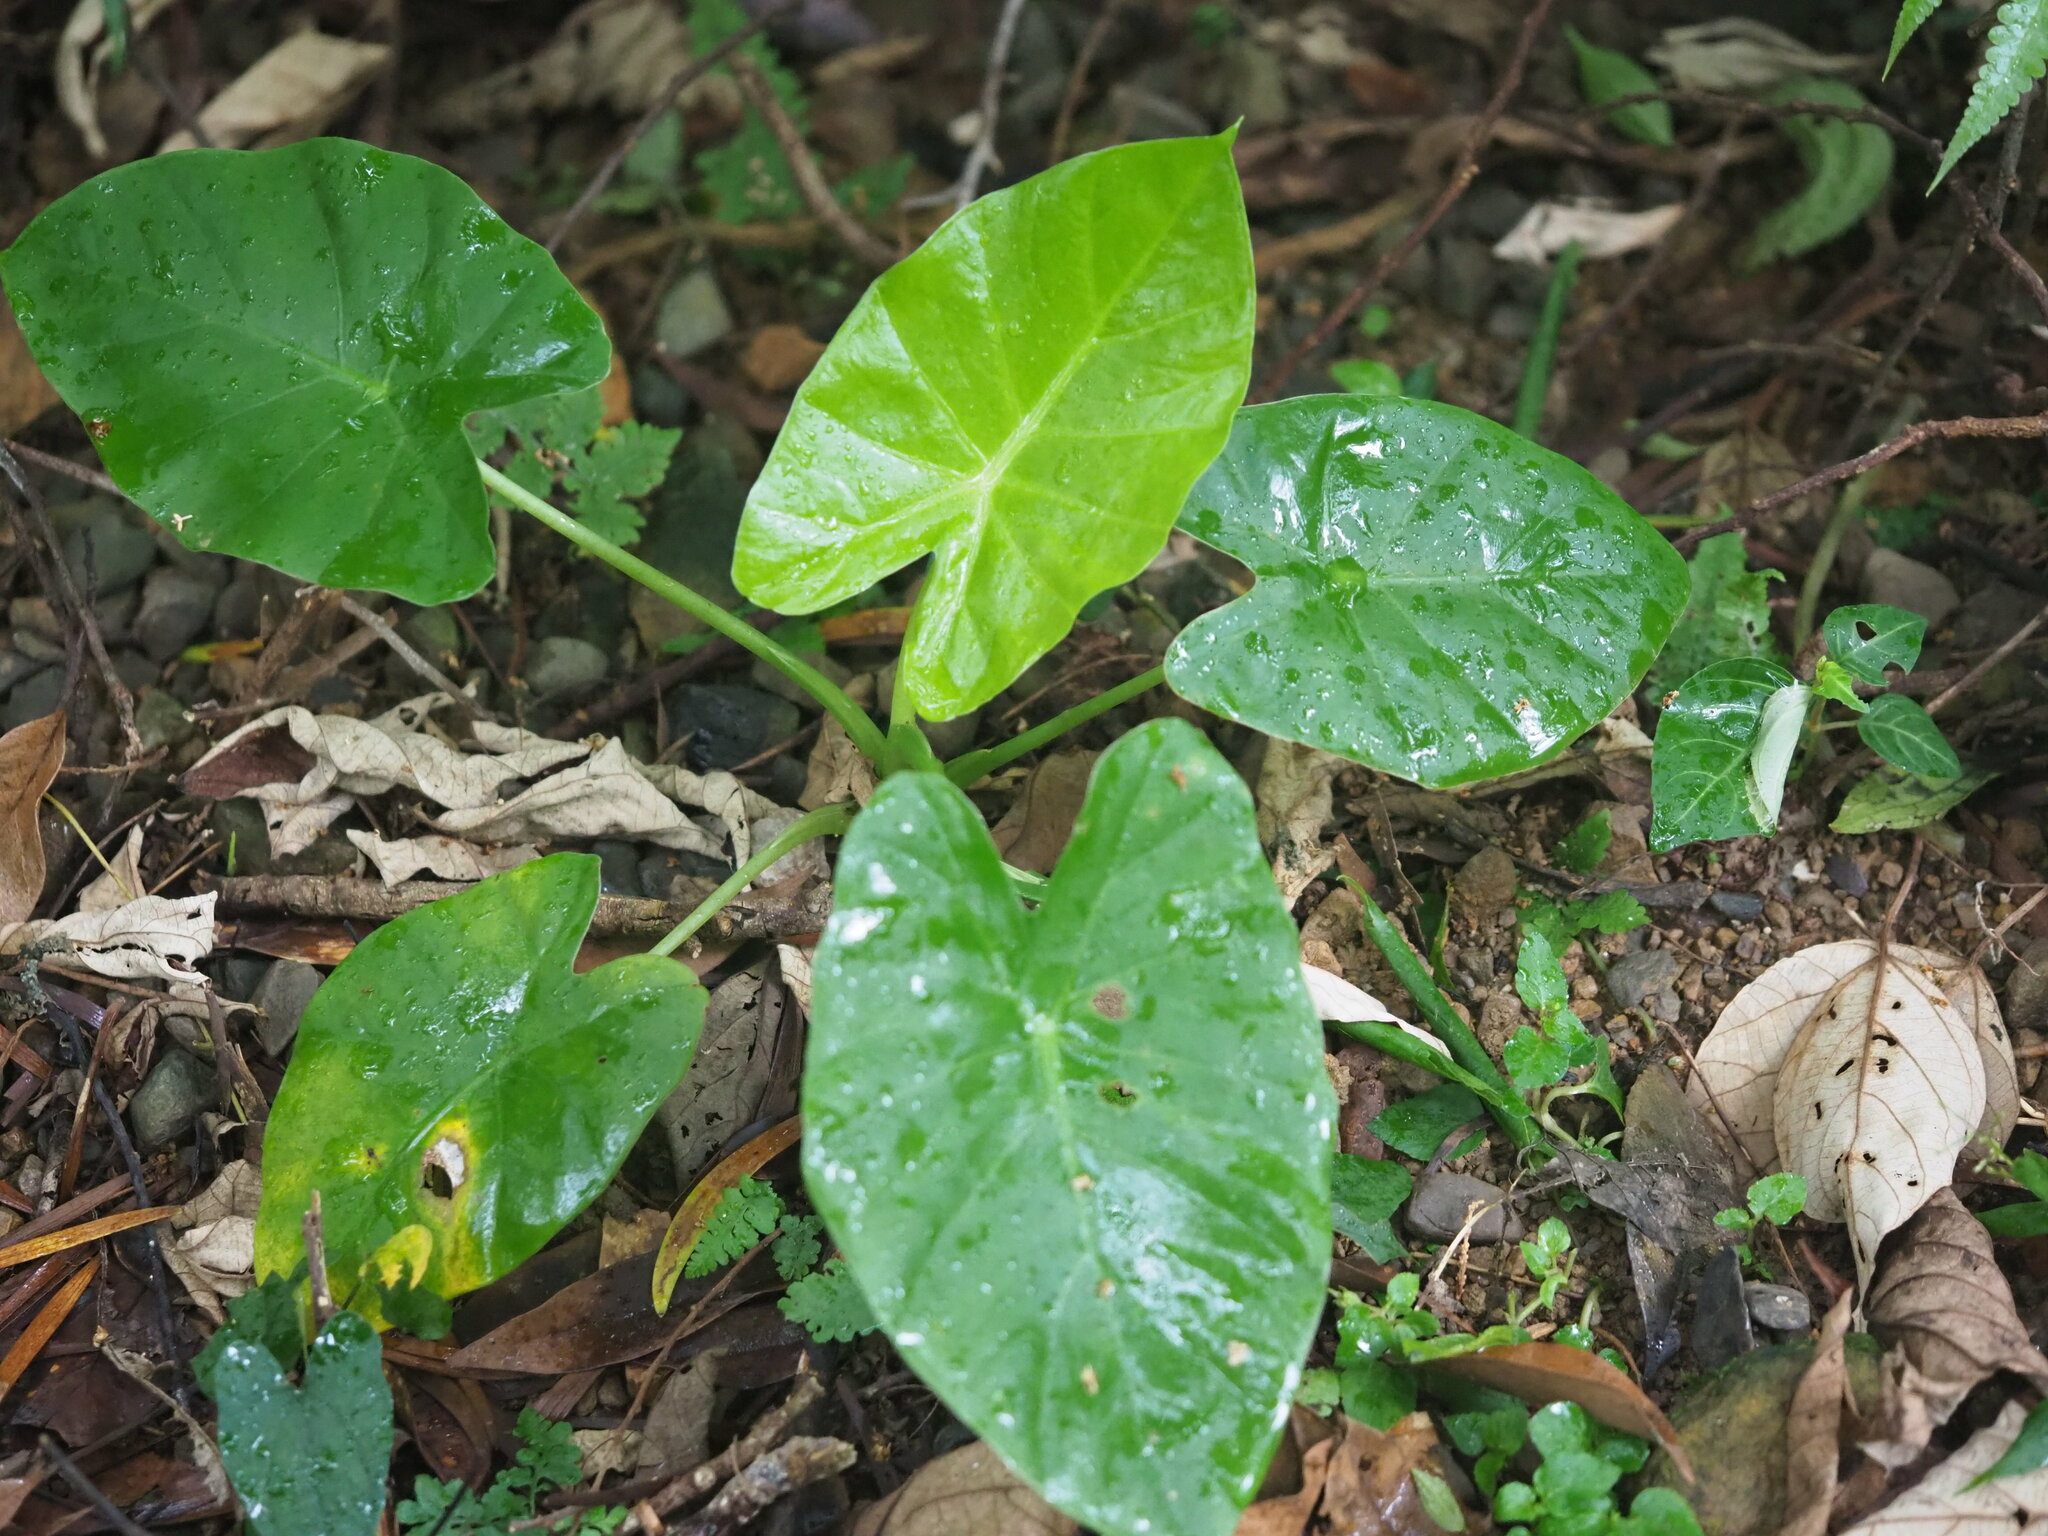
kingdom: Plantae
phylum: Tracheophyta
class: Liliopsida
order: Alismatales
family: Araceae
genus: Alocasia
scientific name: Alocasia odora
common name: Asian taro
